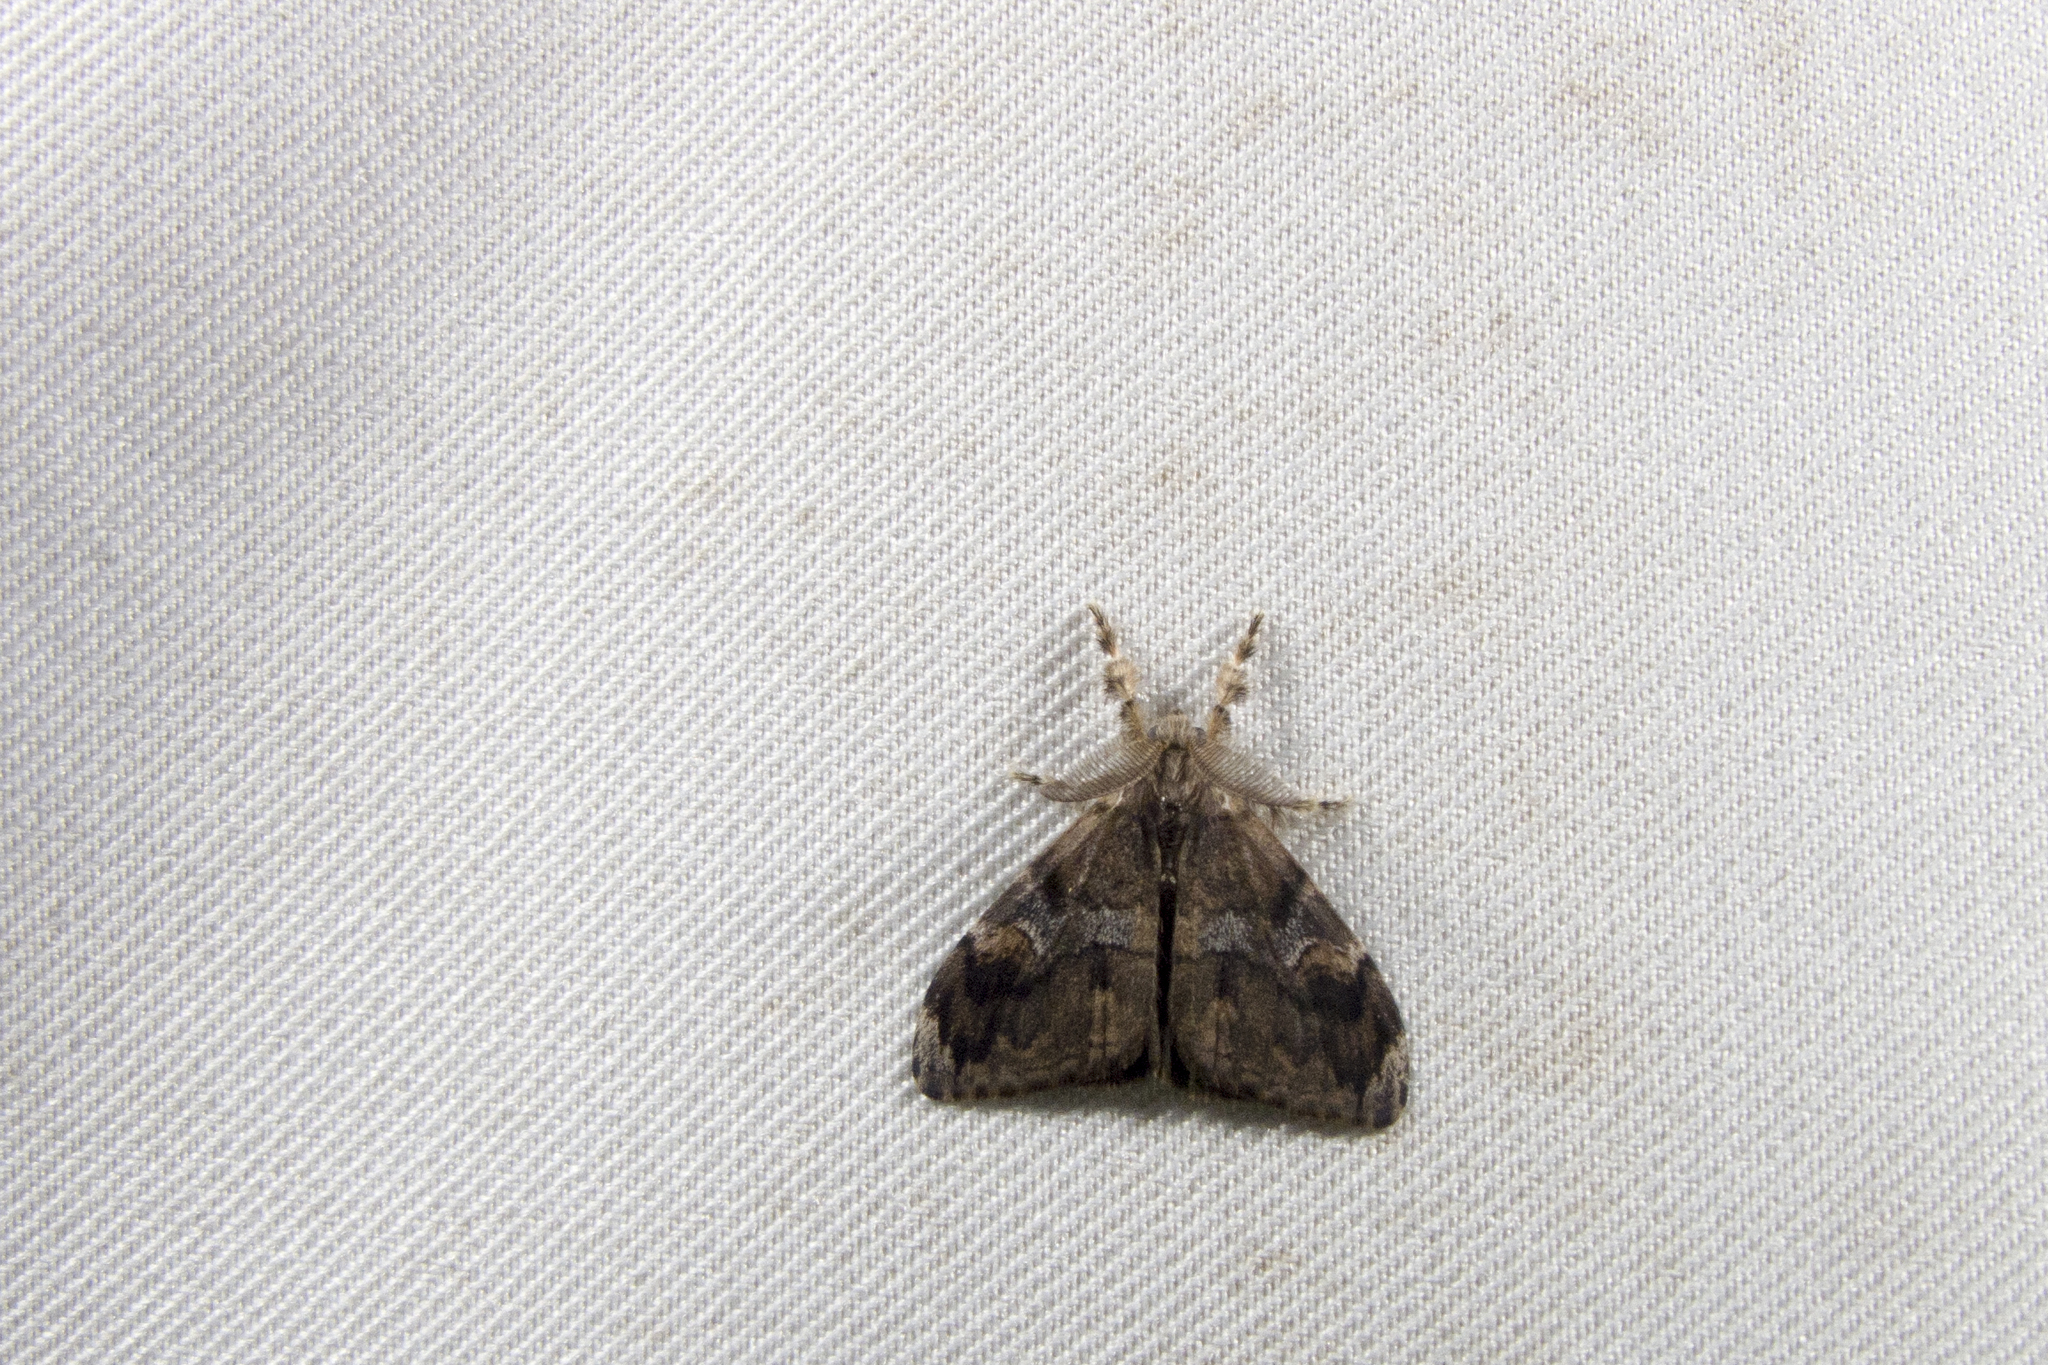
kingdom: Animalia
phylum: Arthropoda
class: Insecta
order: Lepidoptera
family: Erebidae
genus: Orgyia
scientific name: Orgyia postica
